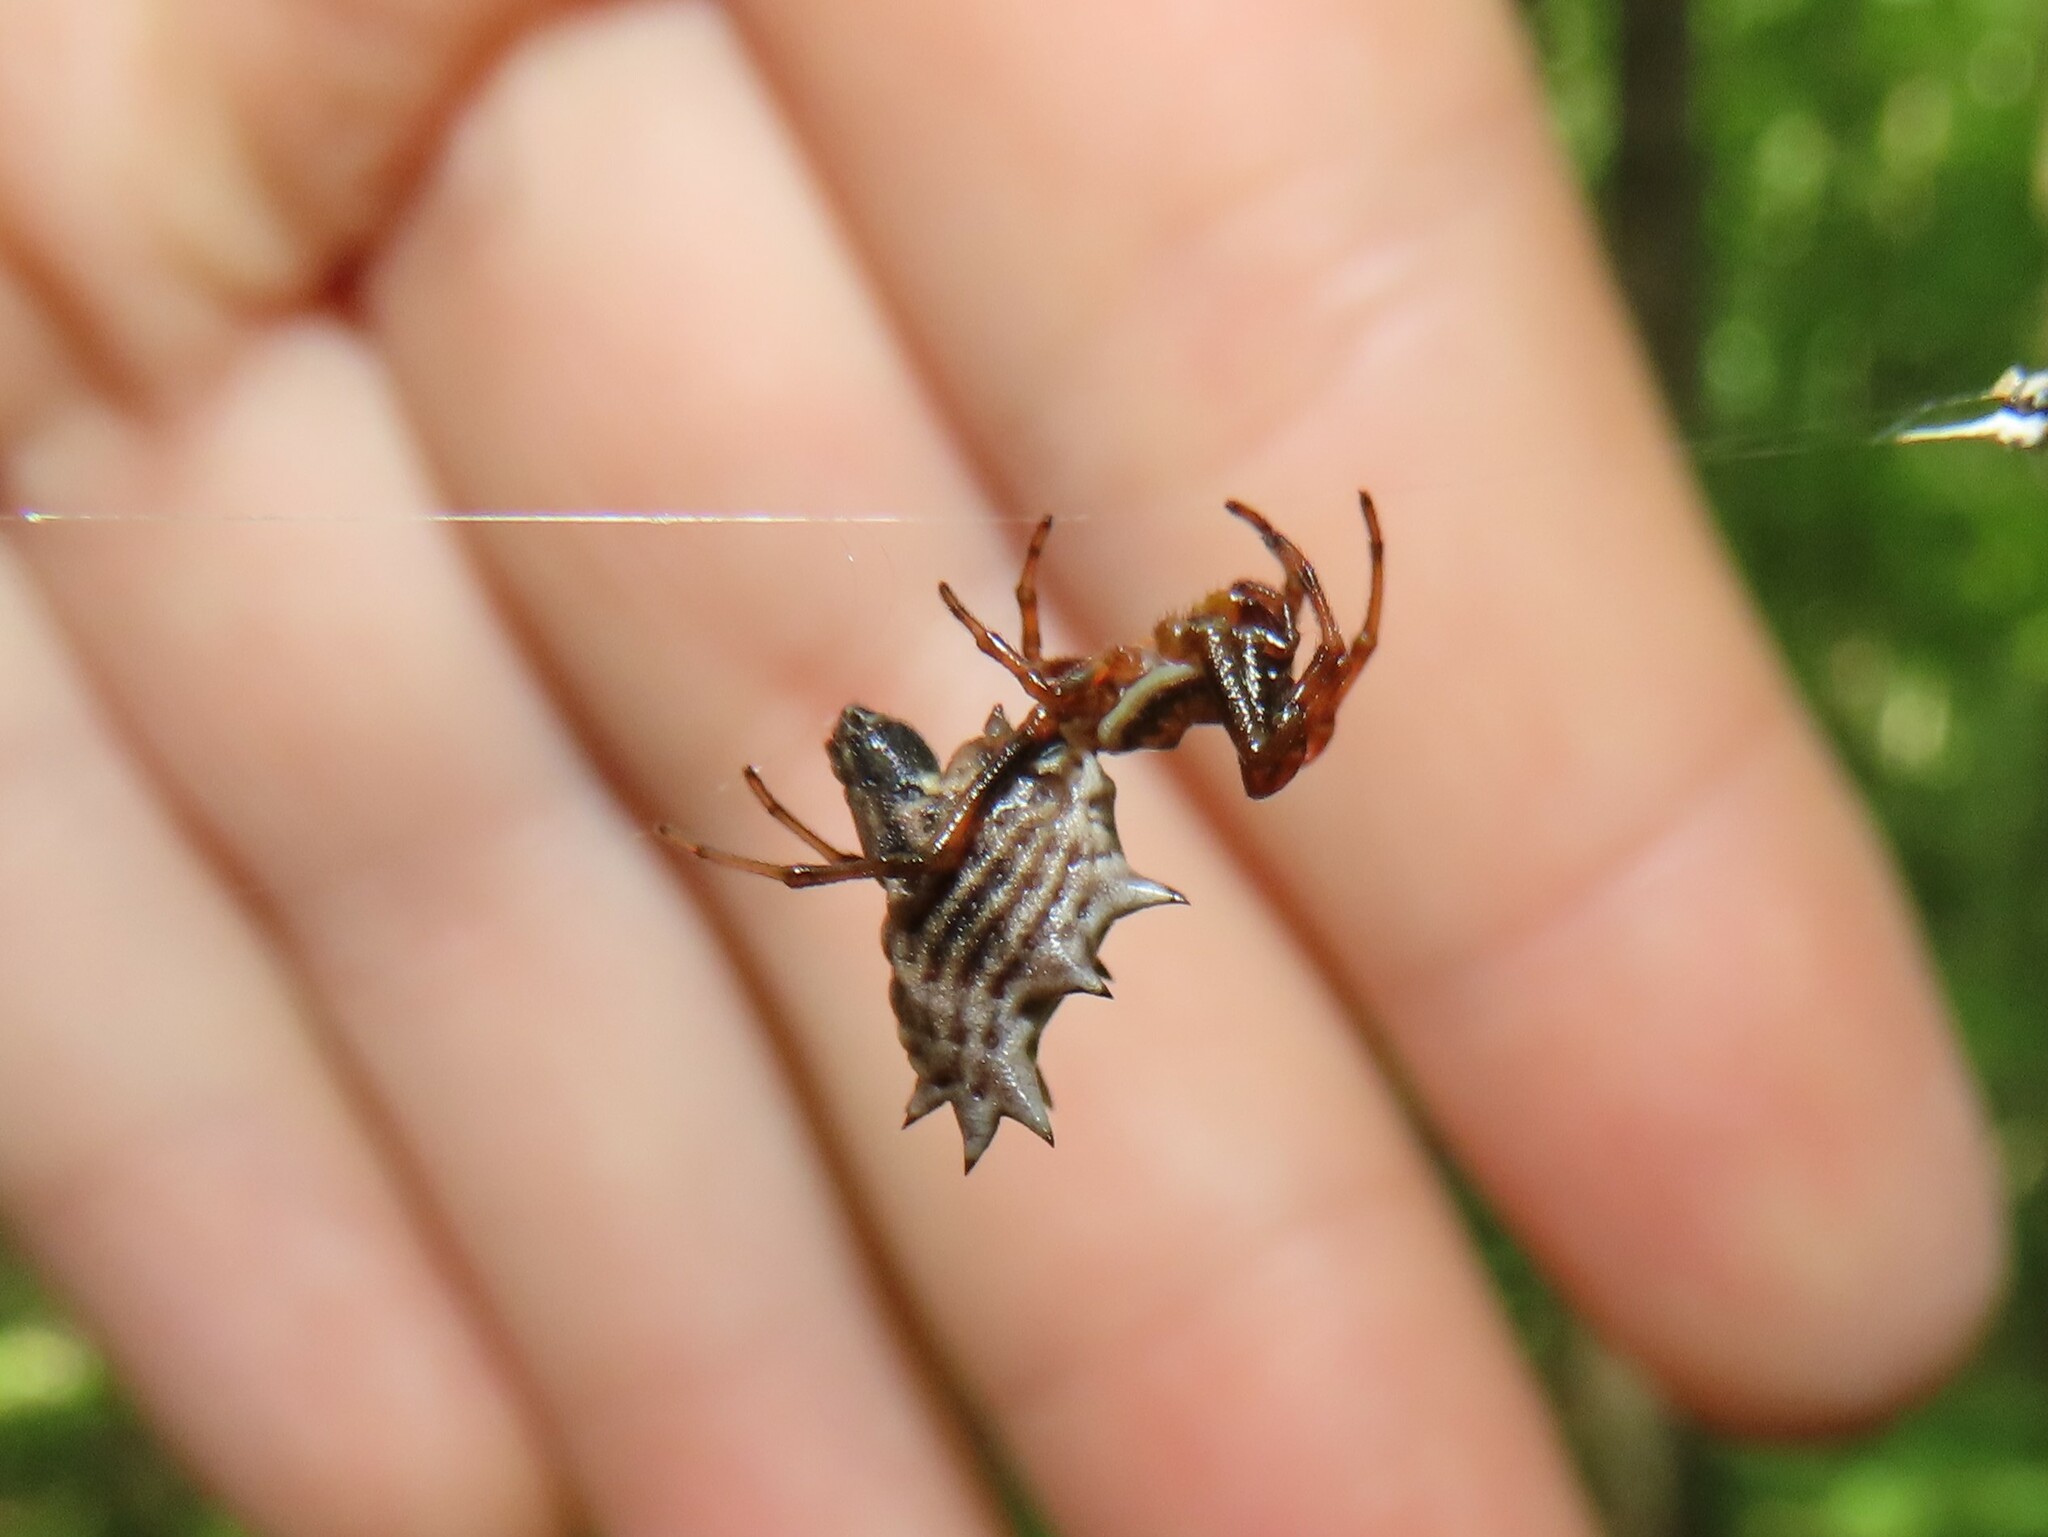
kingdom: Animalia
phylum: Arthropoda
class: Arachnida
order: Araneae
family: Araneidae
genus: Micrathena
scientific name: Micrathena gracilis
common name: Orb weavers
